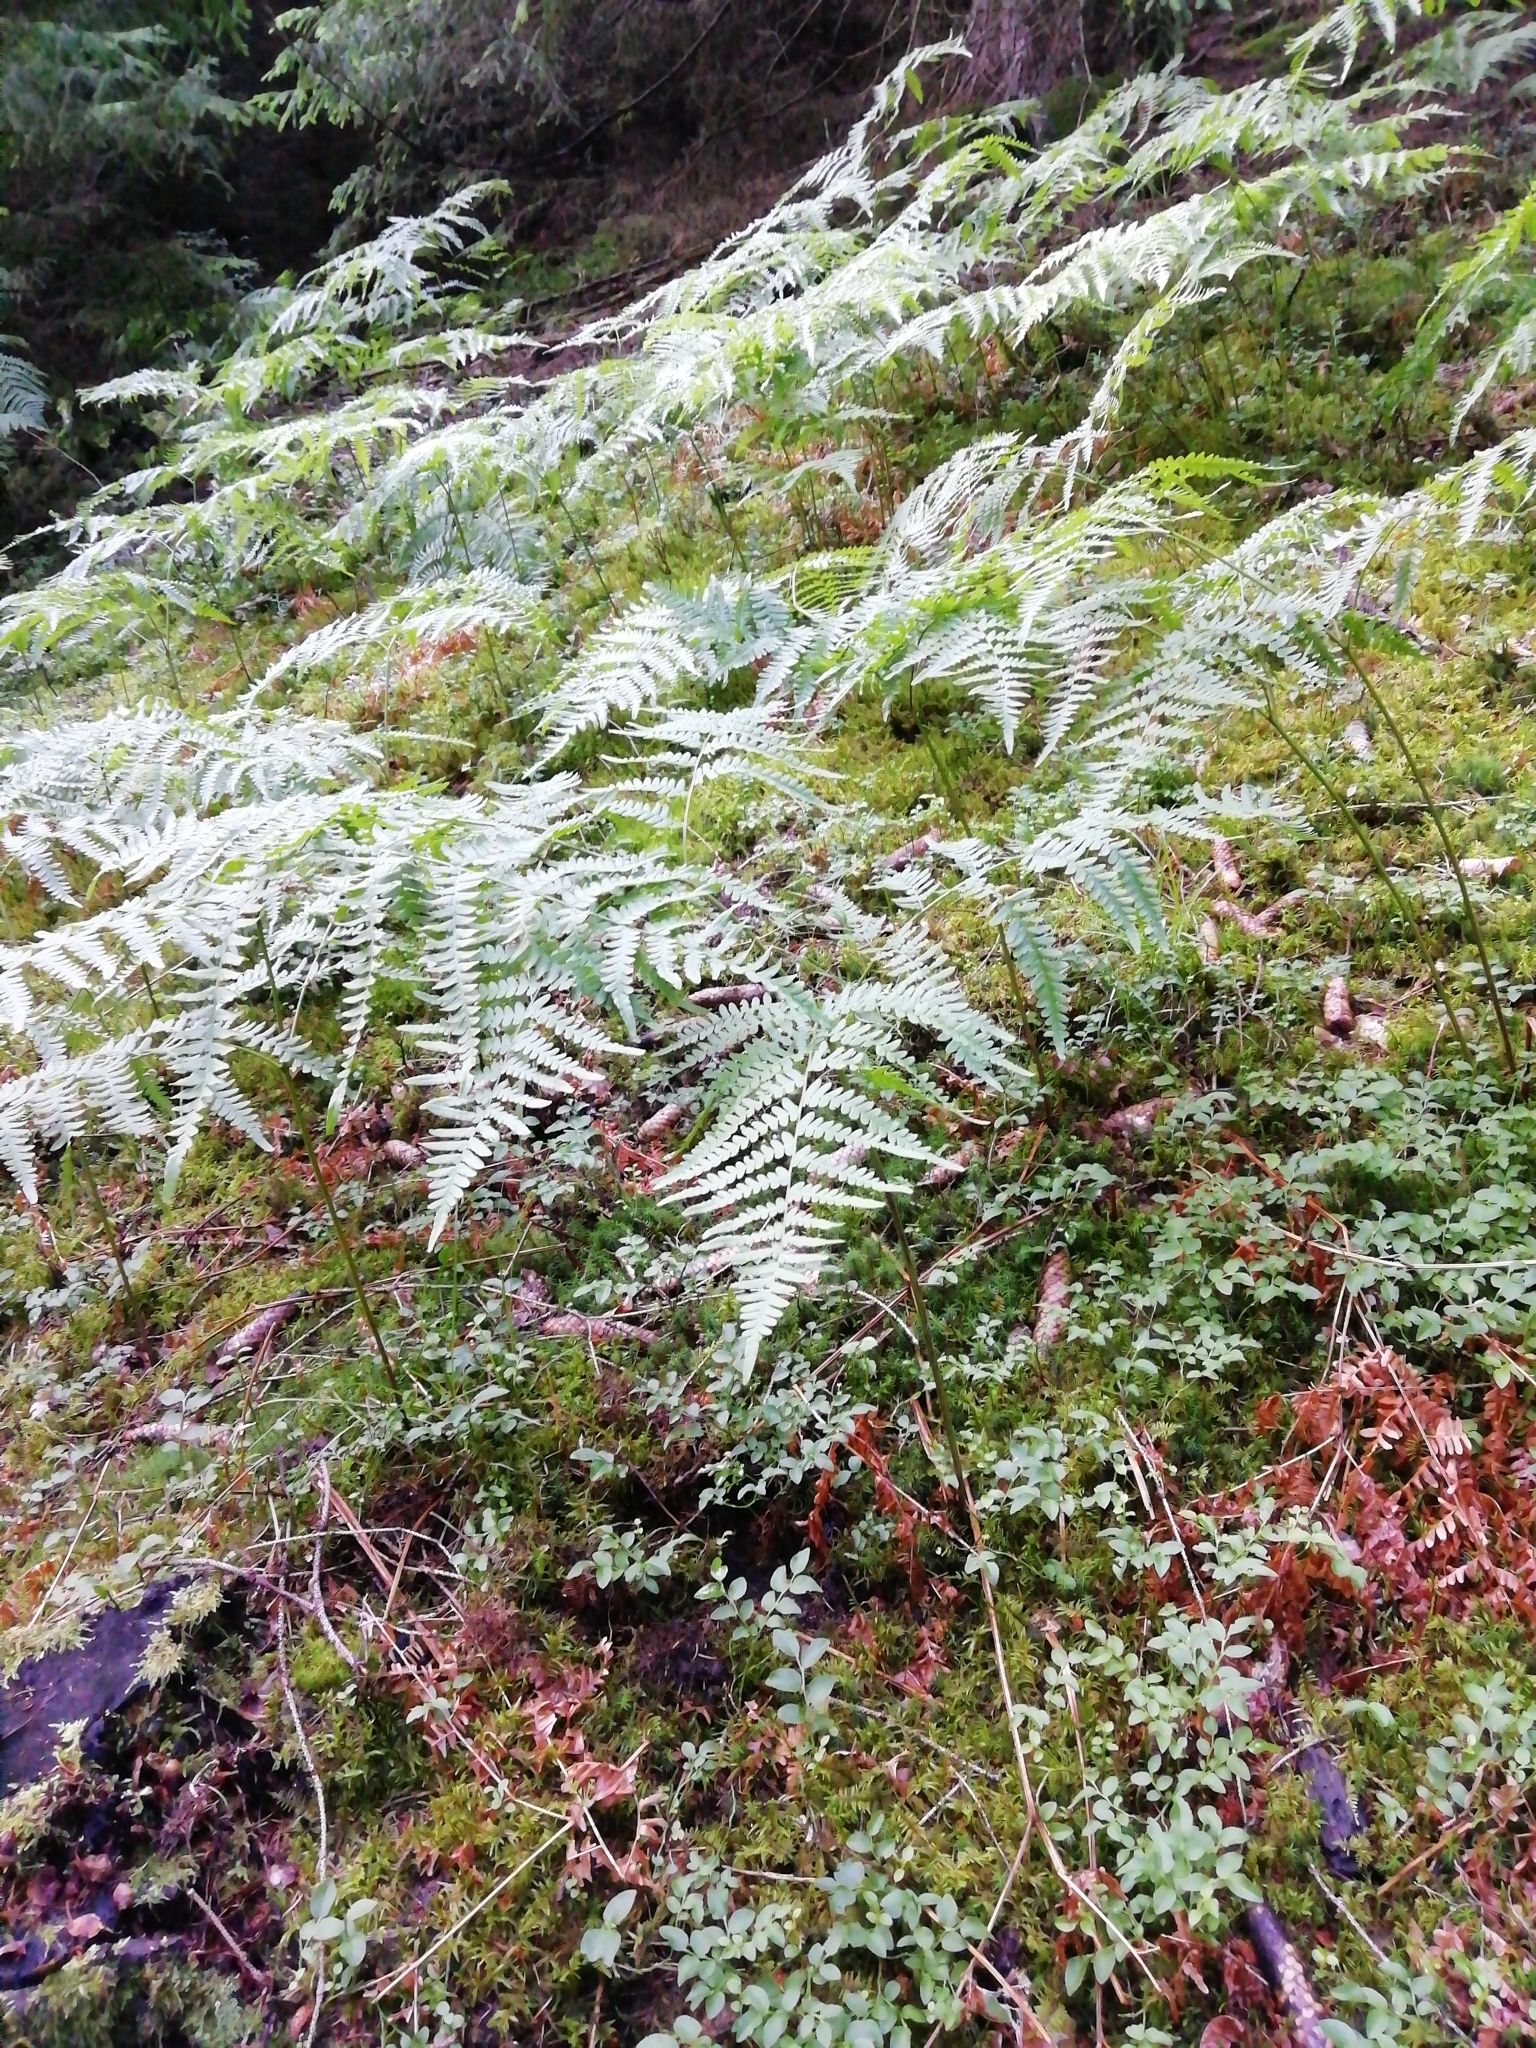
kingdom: Plantae
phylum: Tracheophyta
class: Polypodiopsida
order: Polypodiales
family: Dennstaedtiaceae
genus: Pteridium
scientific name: Pteridium aquilinum
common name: Bracken
